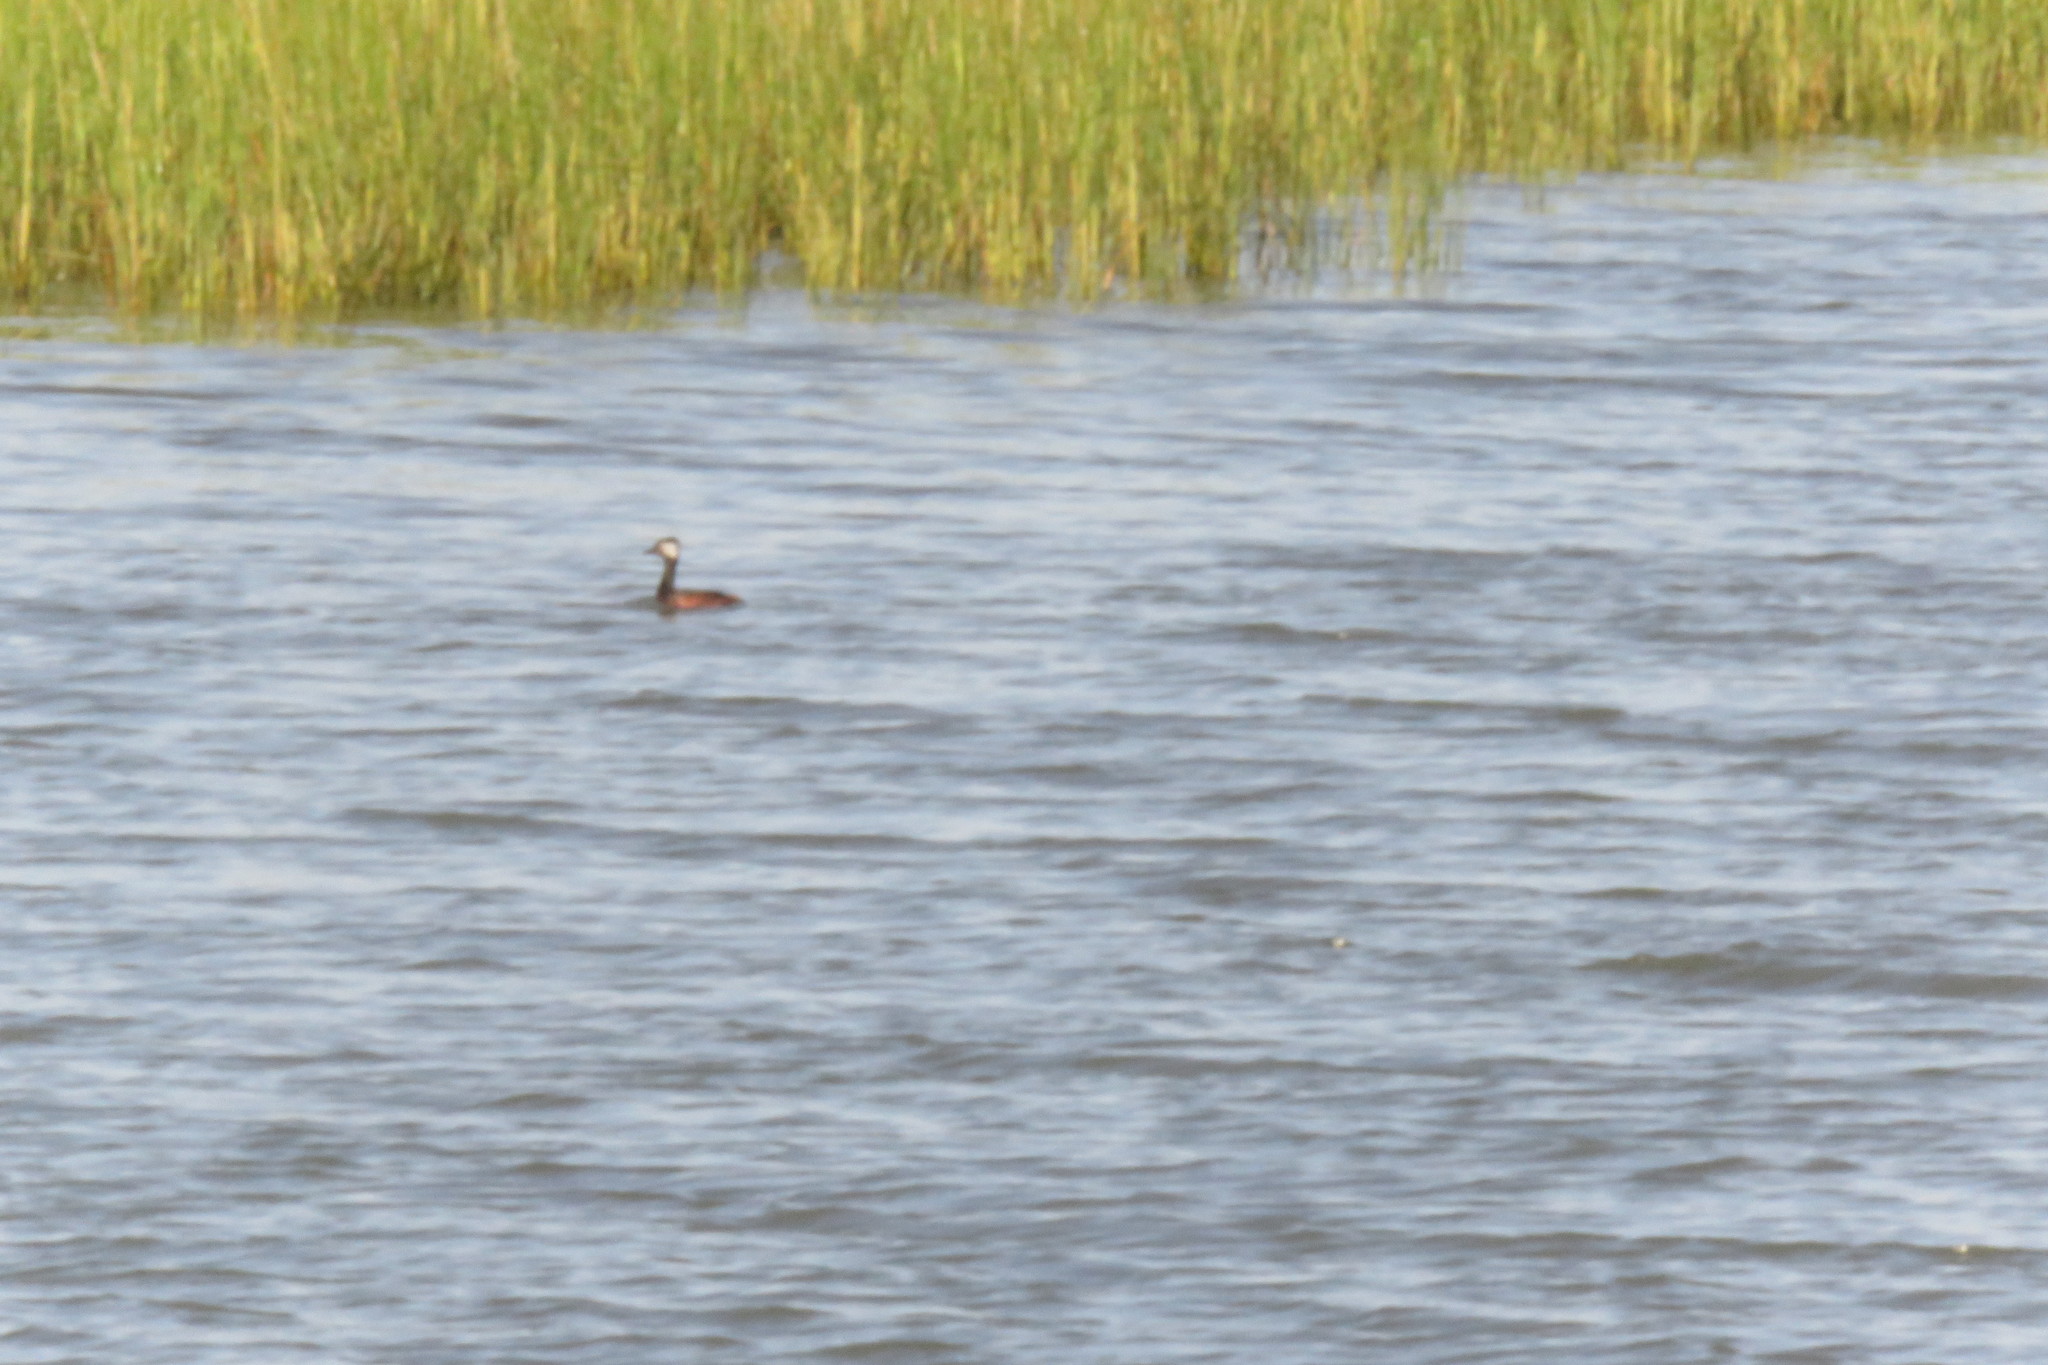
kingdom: Animalia
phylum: Chordata
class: Aves
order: Podicipediformes
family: Podicipedidae
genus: Rollandia
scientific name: Rollandia rolland
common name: White-tufted grebe
